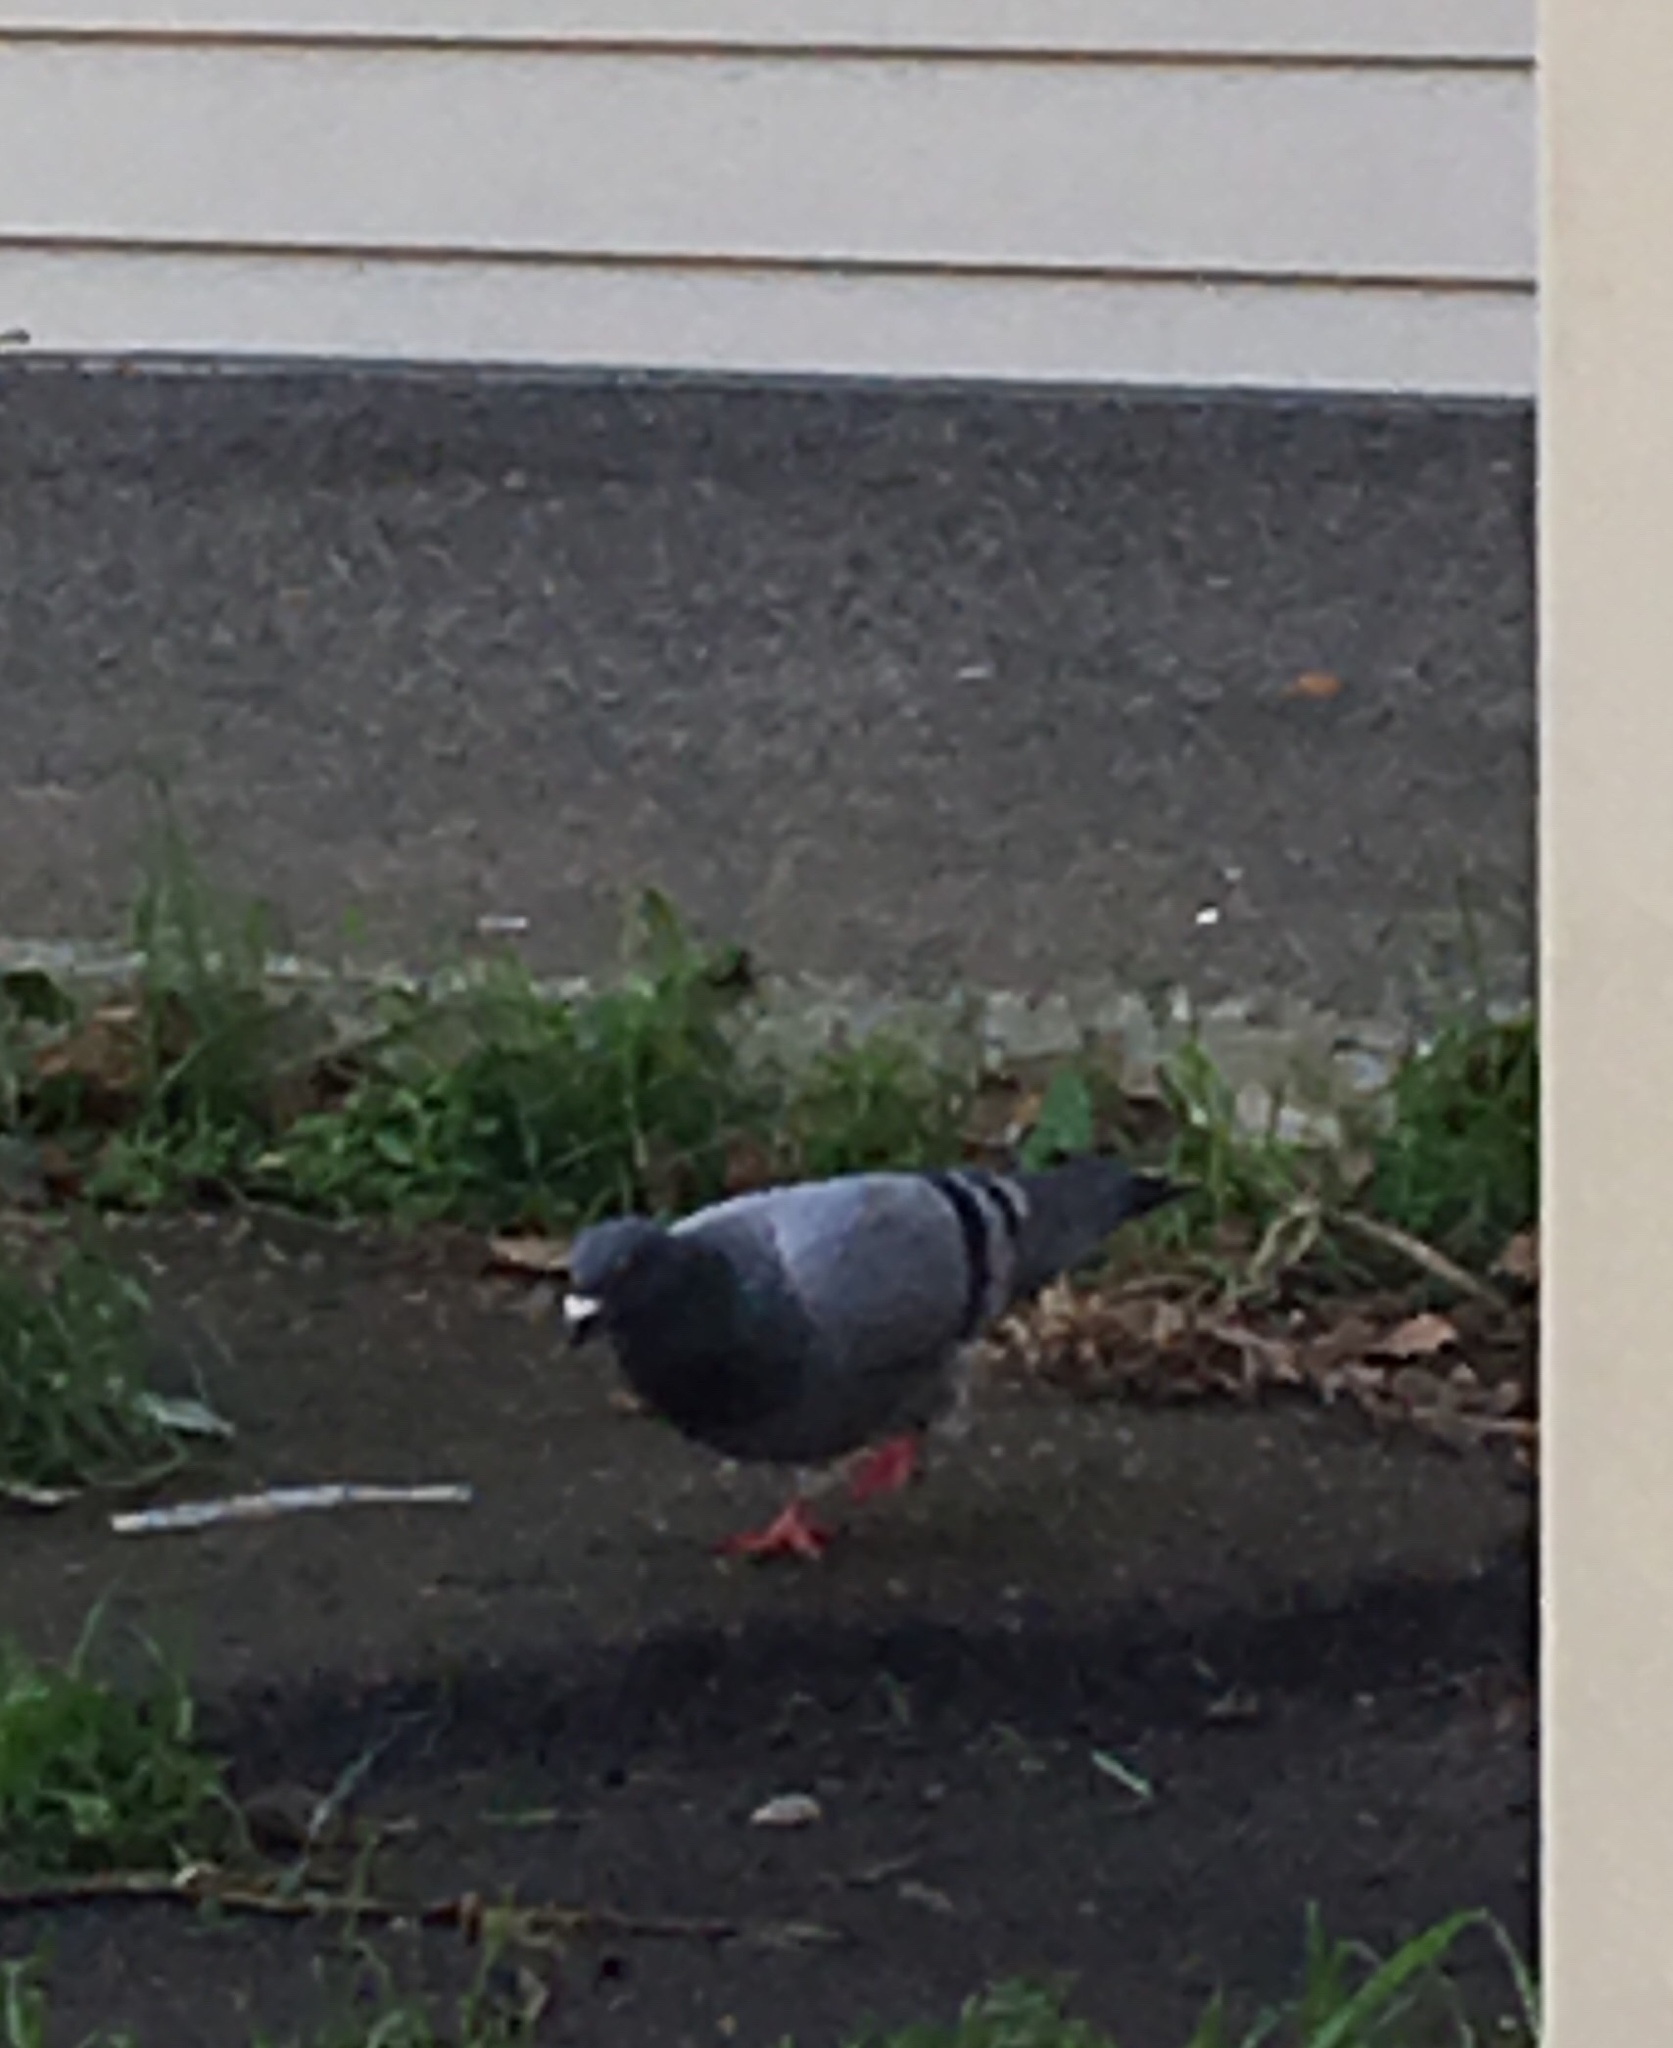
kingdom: Animalia
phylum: Chordata
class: Aves
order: Columbiformes
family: Columbidae
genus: Columba
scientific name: Columba livia
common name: Rock pigeon
